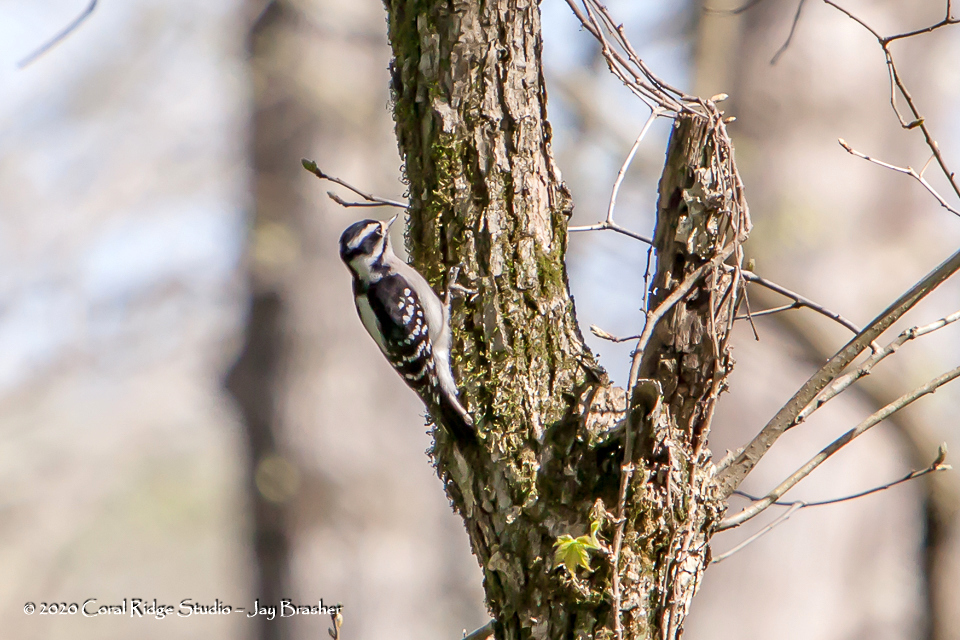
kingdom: Animalia
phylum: Chordata
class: Aves
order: Piciformes
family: Picidae
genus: Dryobates
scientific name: Dryobates pubescens
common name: Downy woodpecker
